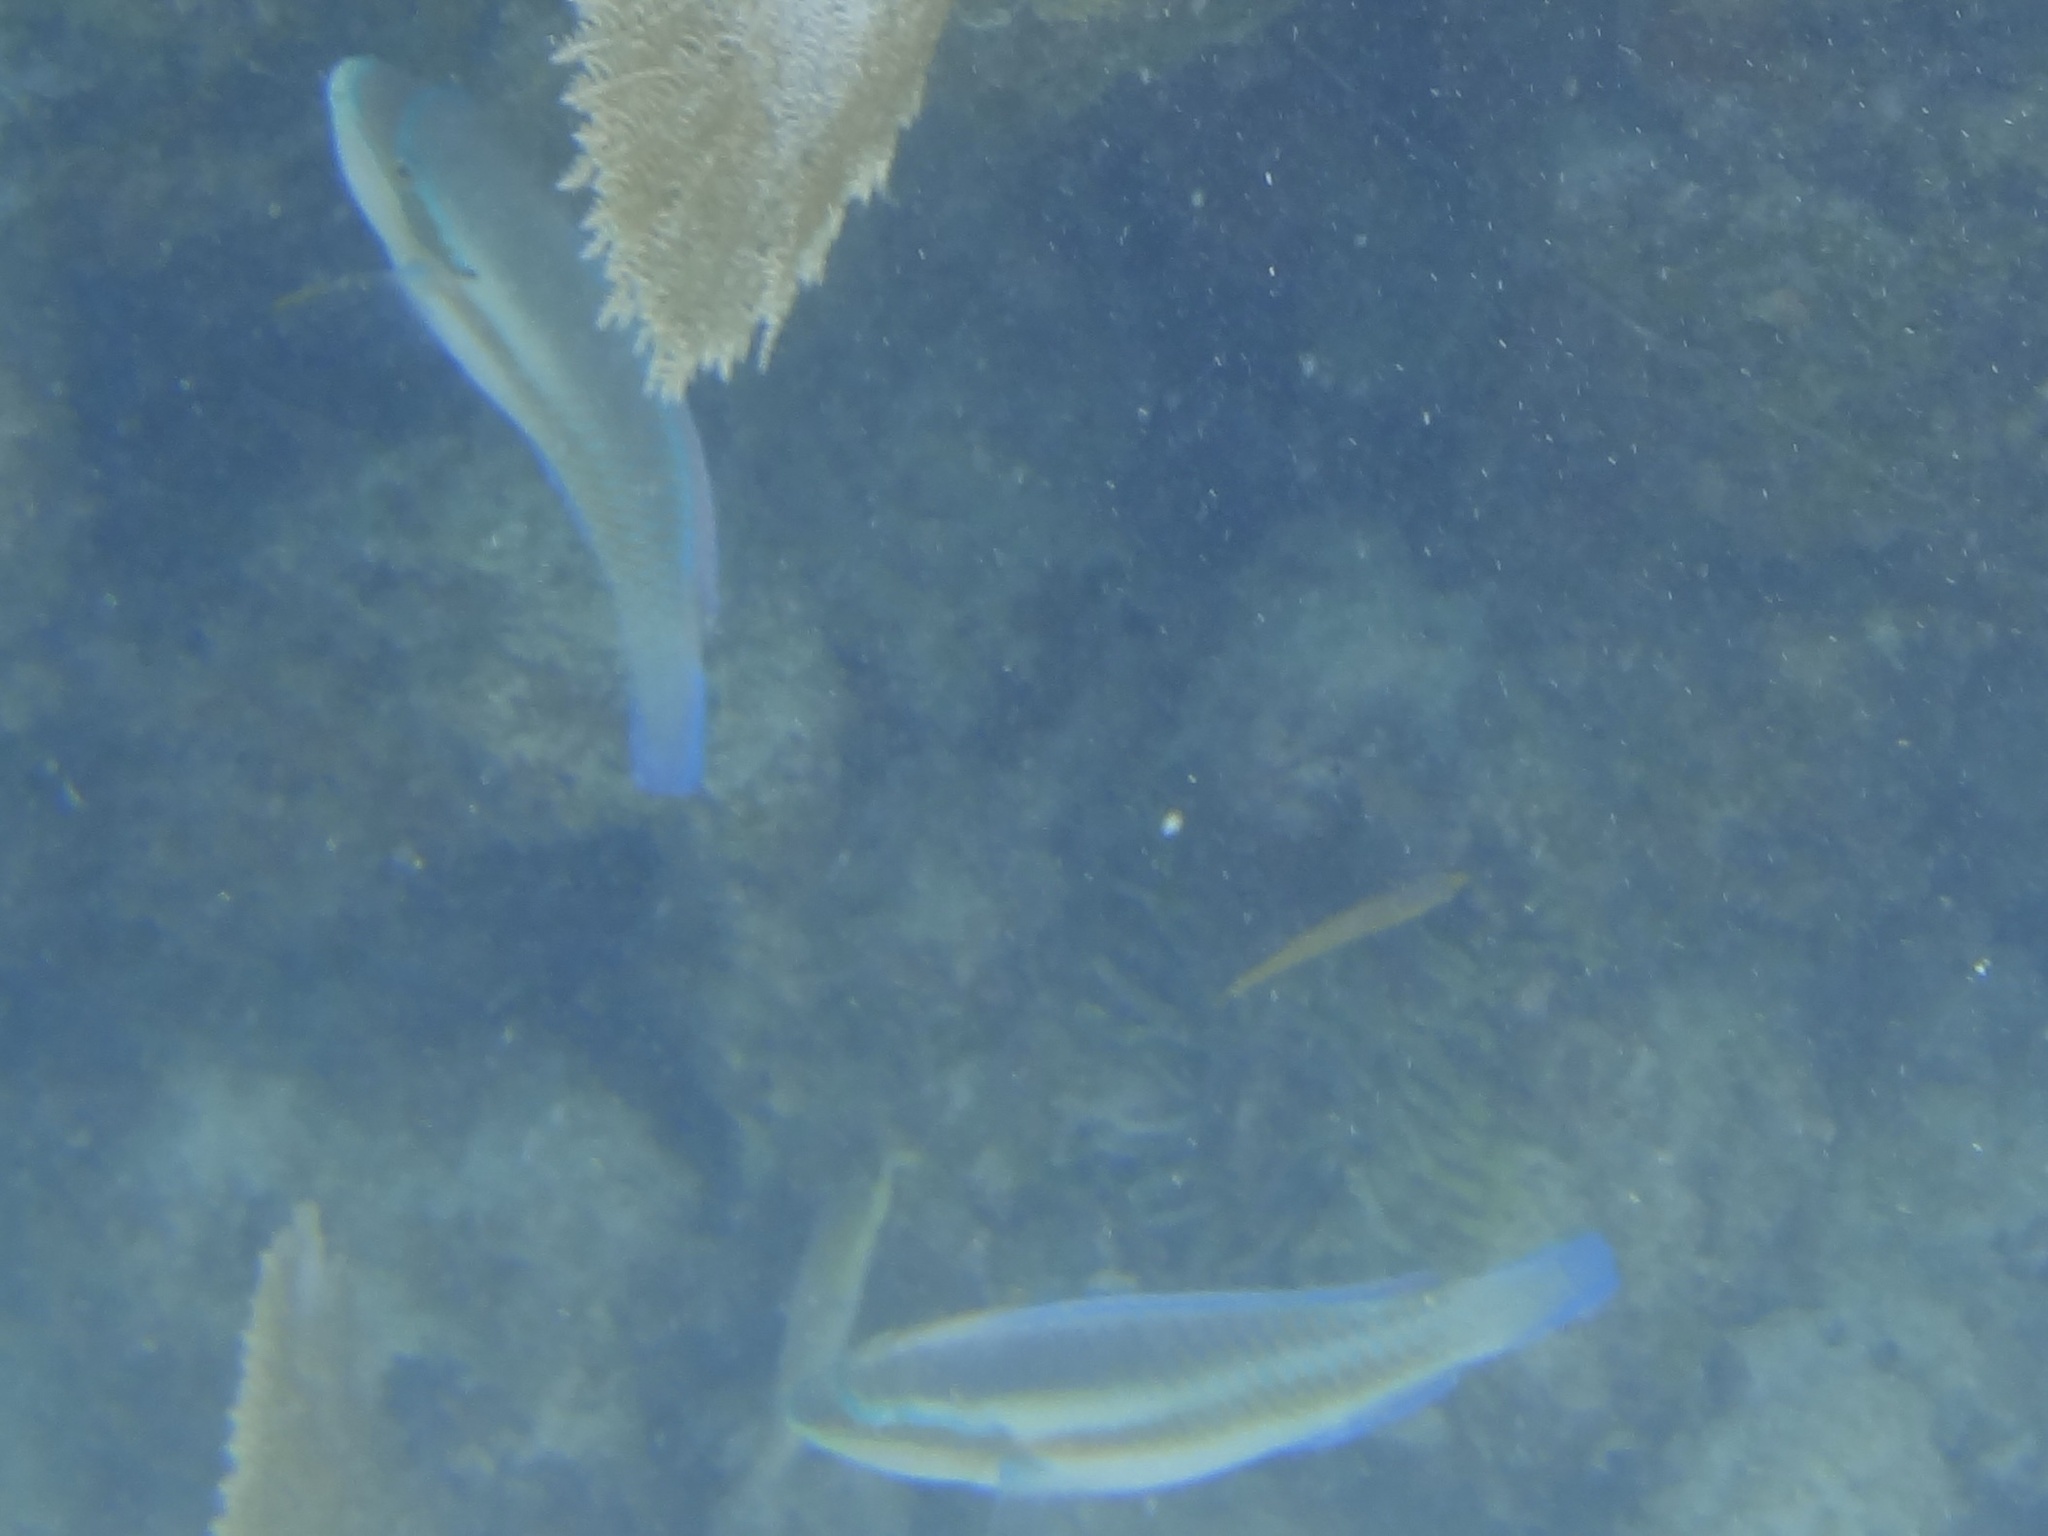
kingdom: Animalia
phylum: Chordata
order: Perciformes
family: Scaridae
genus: Scarus
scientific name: Scarus iseri
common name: Striped parrotfish
